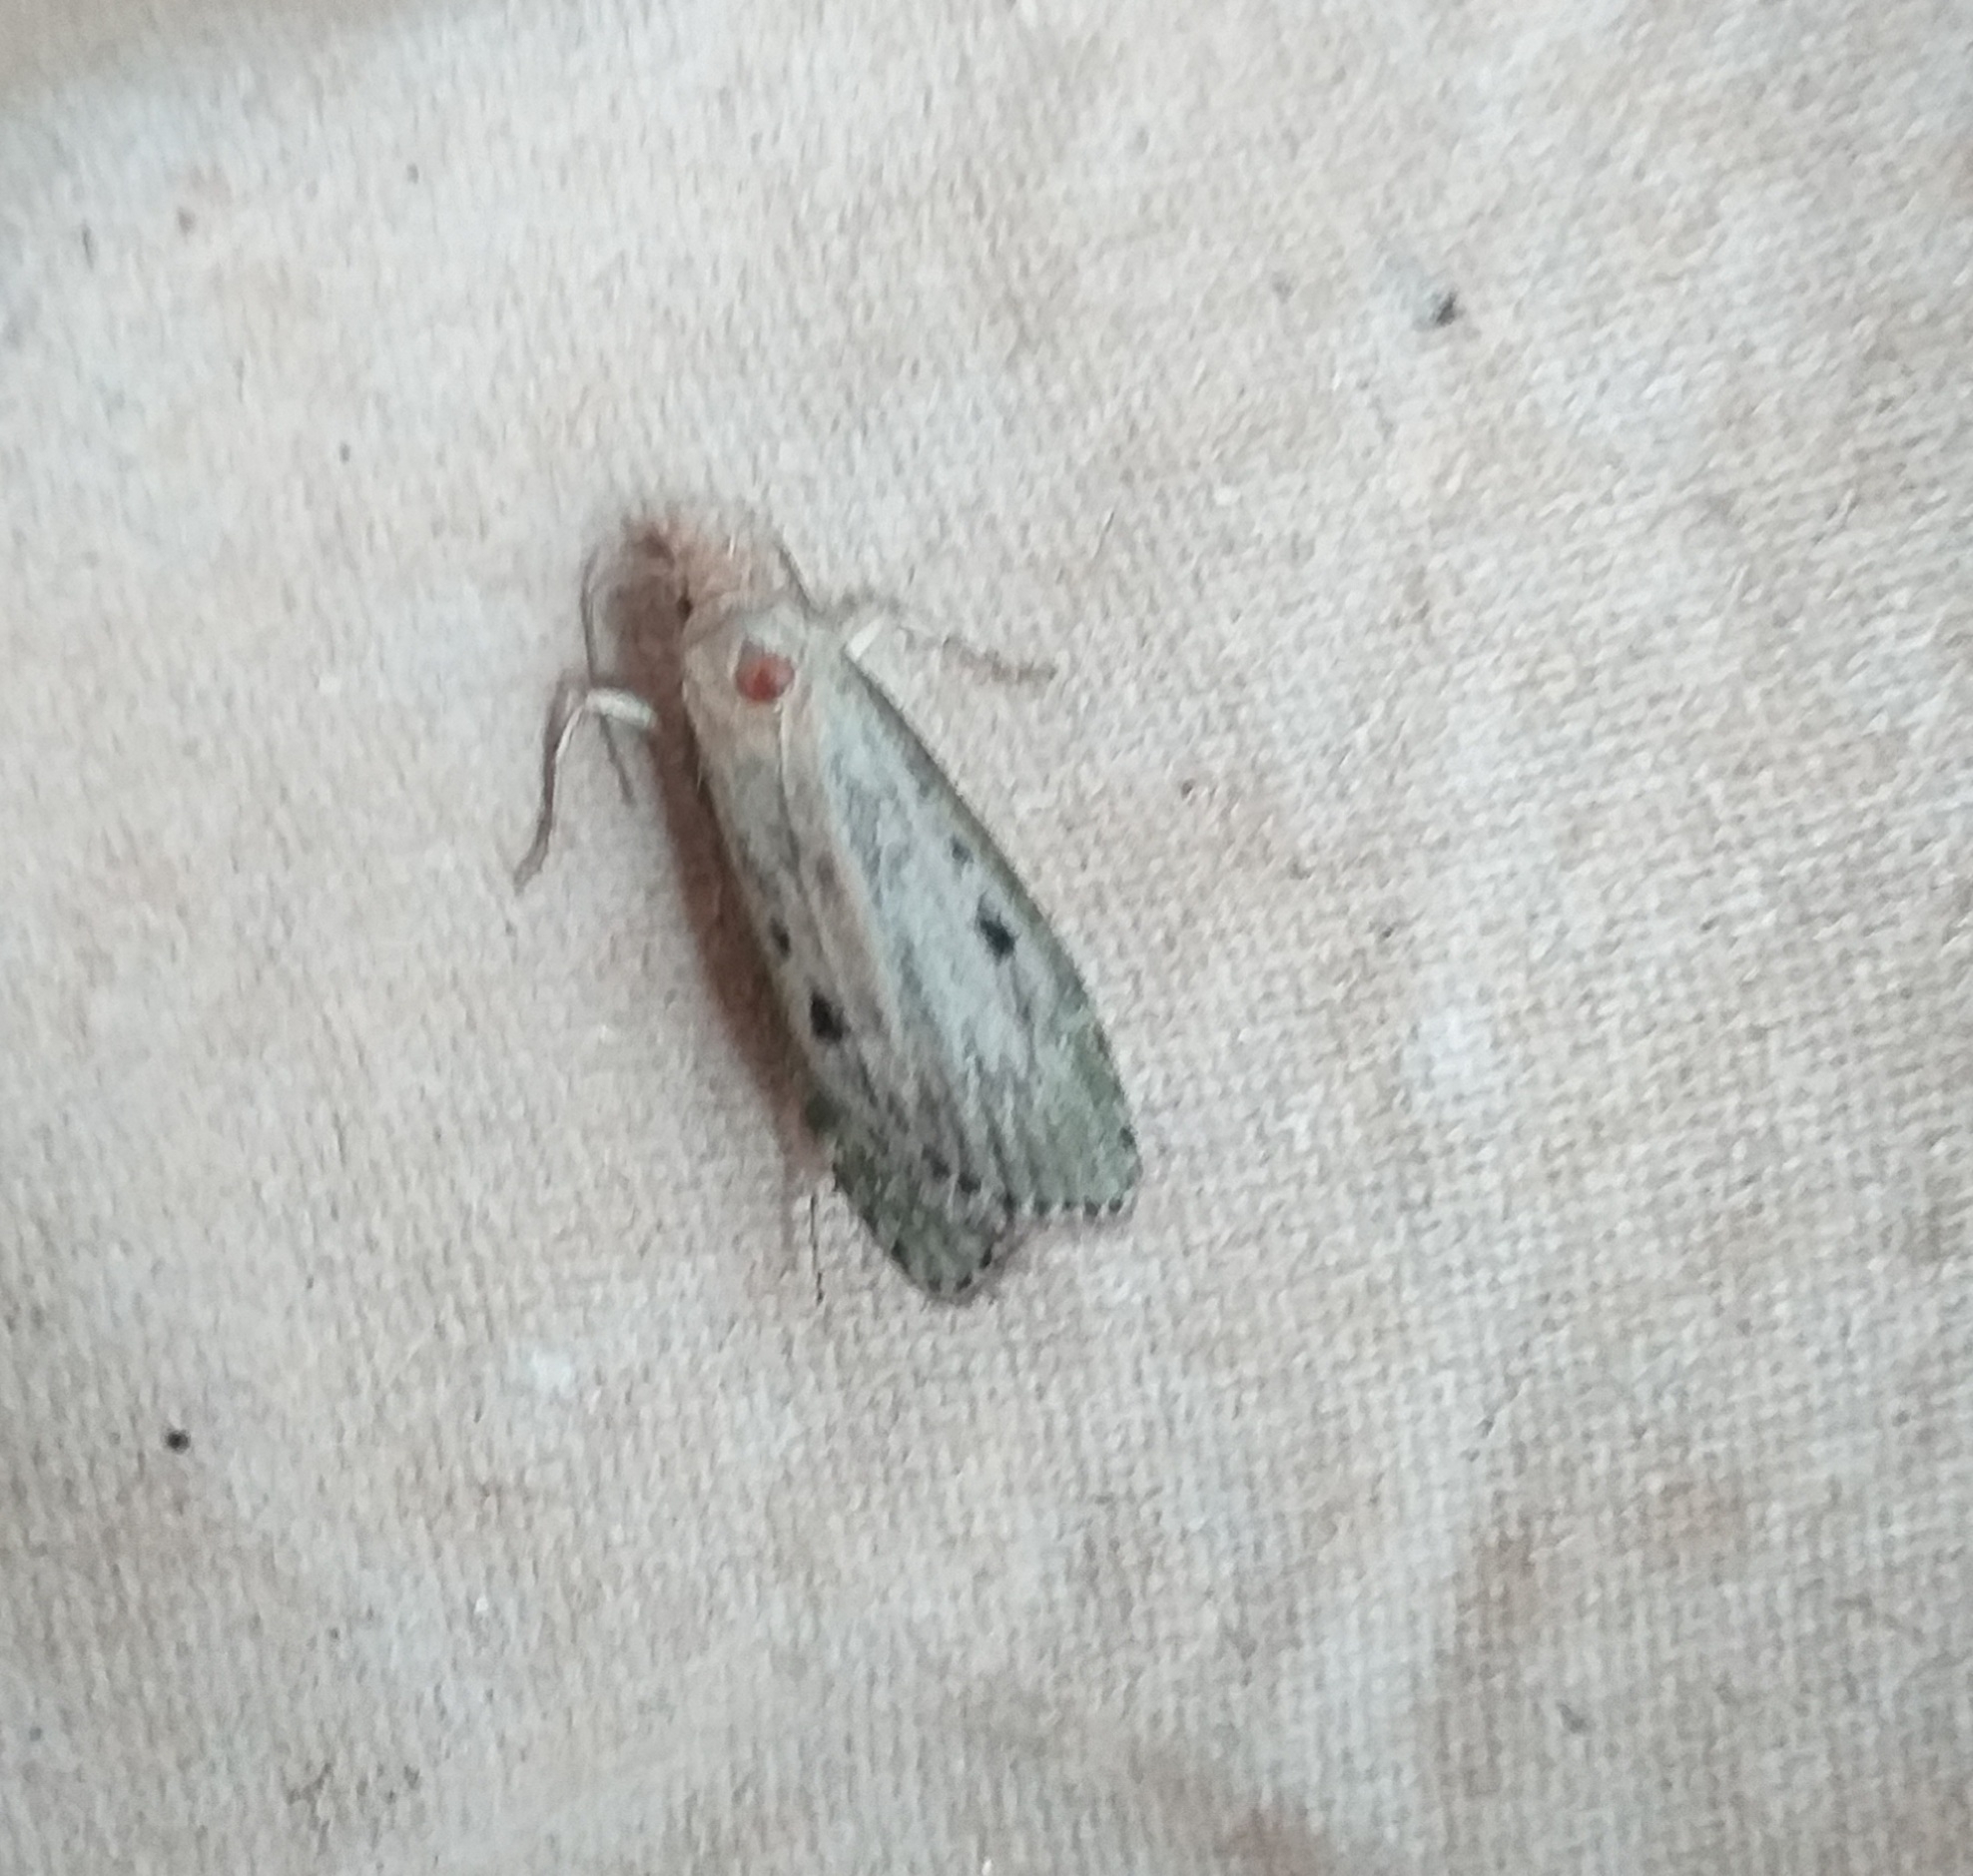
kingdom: Animalia
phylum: Arthropoda
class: Insecta
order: Lepidoptera
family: Pyralidae
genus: Aphomia
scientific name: Aphomia sociella
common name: Bee moth
